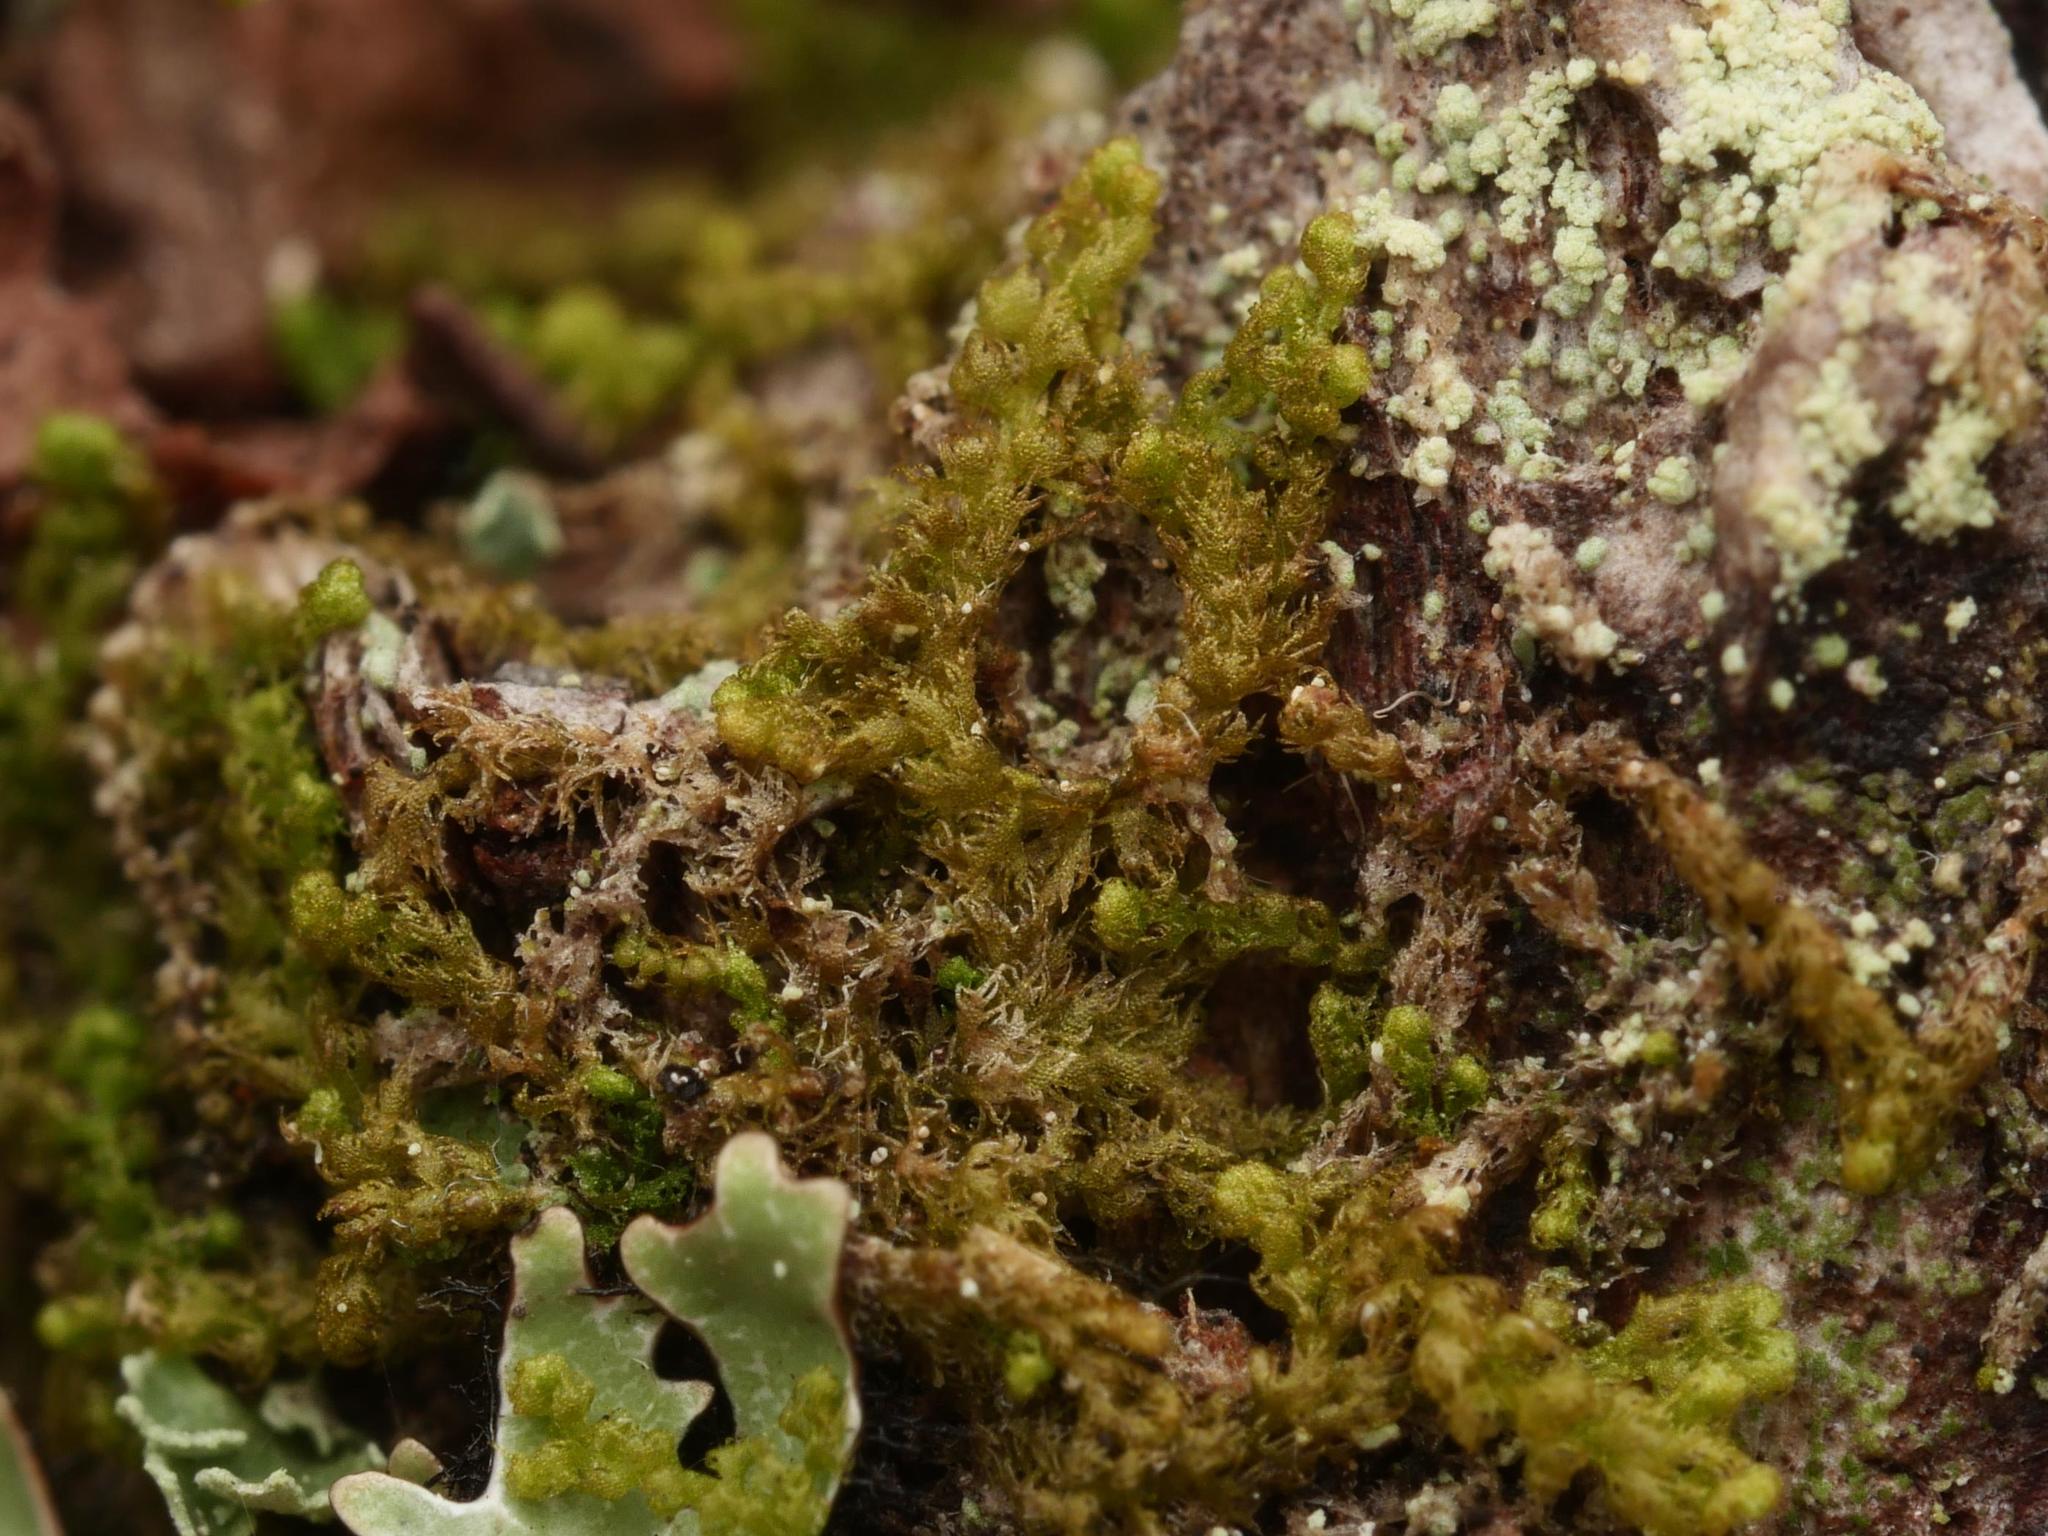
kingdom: Plantae
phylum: Marchantiophyta
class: Jungermanniopsida
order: Ptilidiales
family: Ptilidiaceae
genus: Ptilidium
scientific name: Ptilidium pulcherrimum
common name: Tree fringewort
